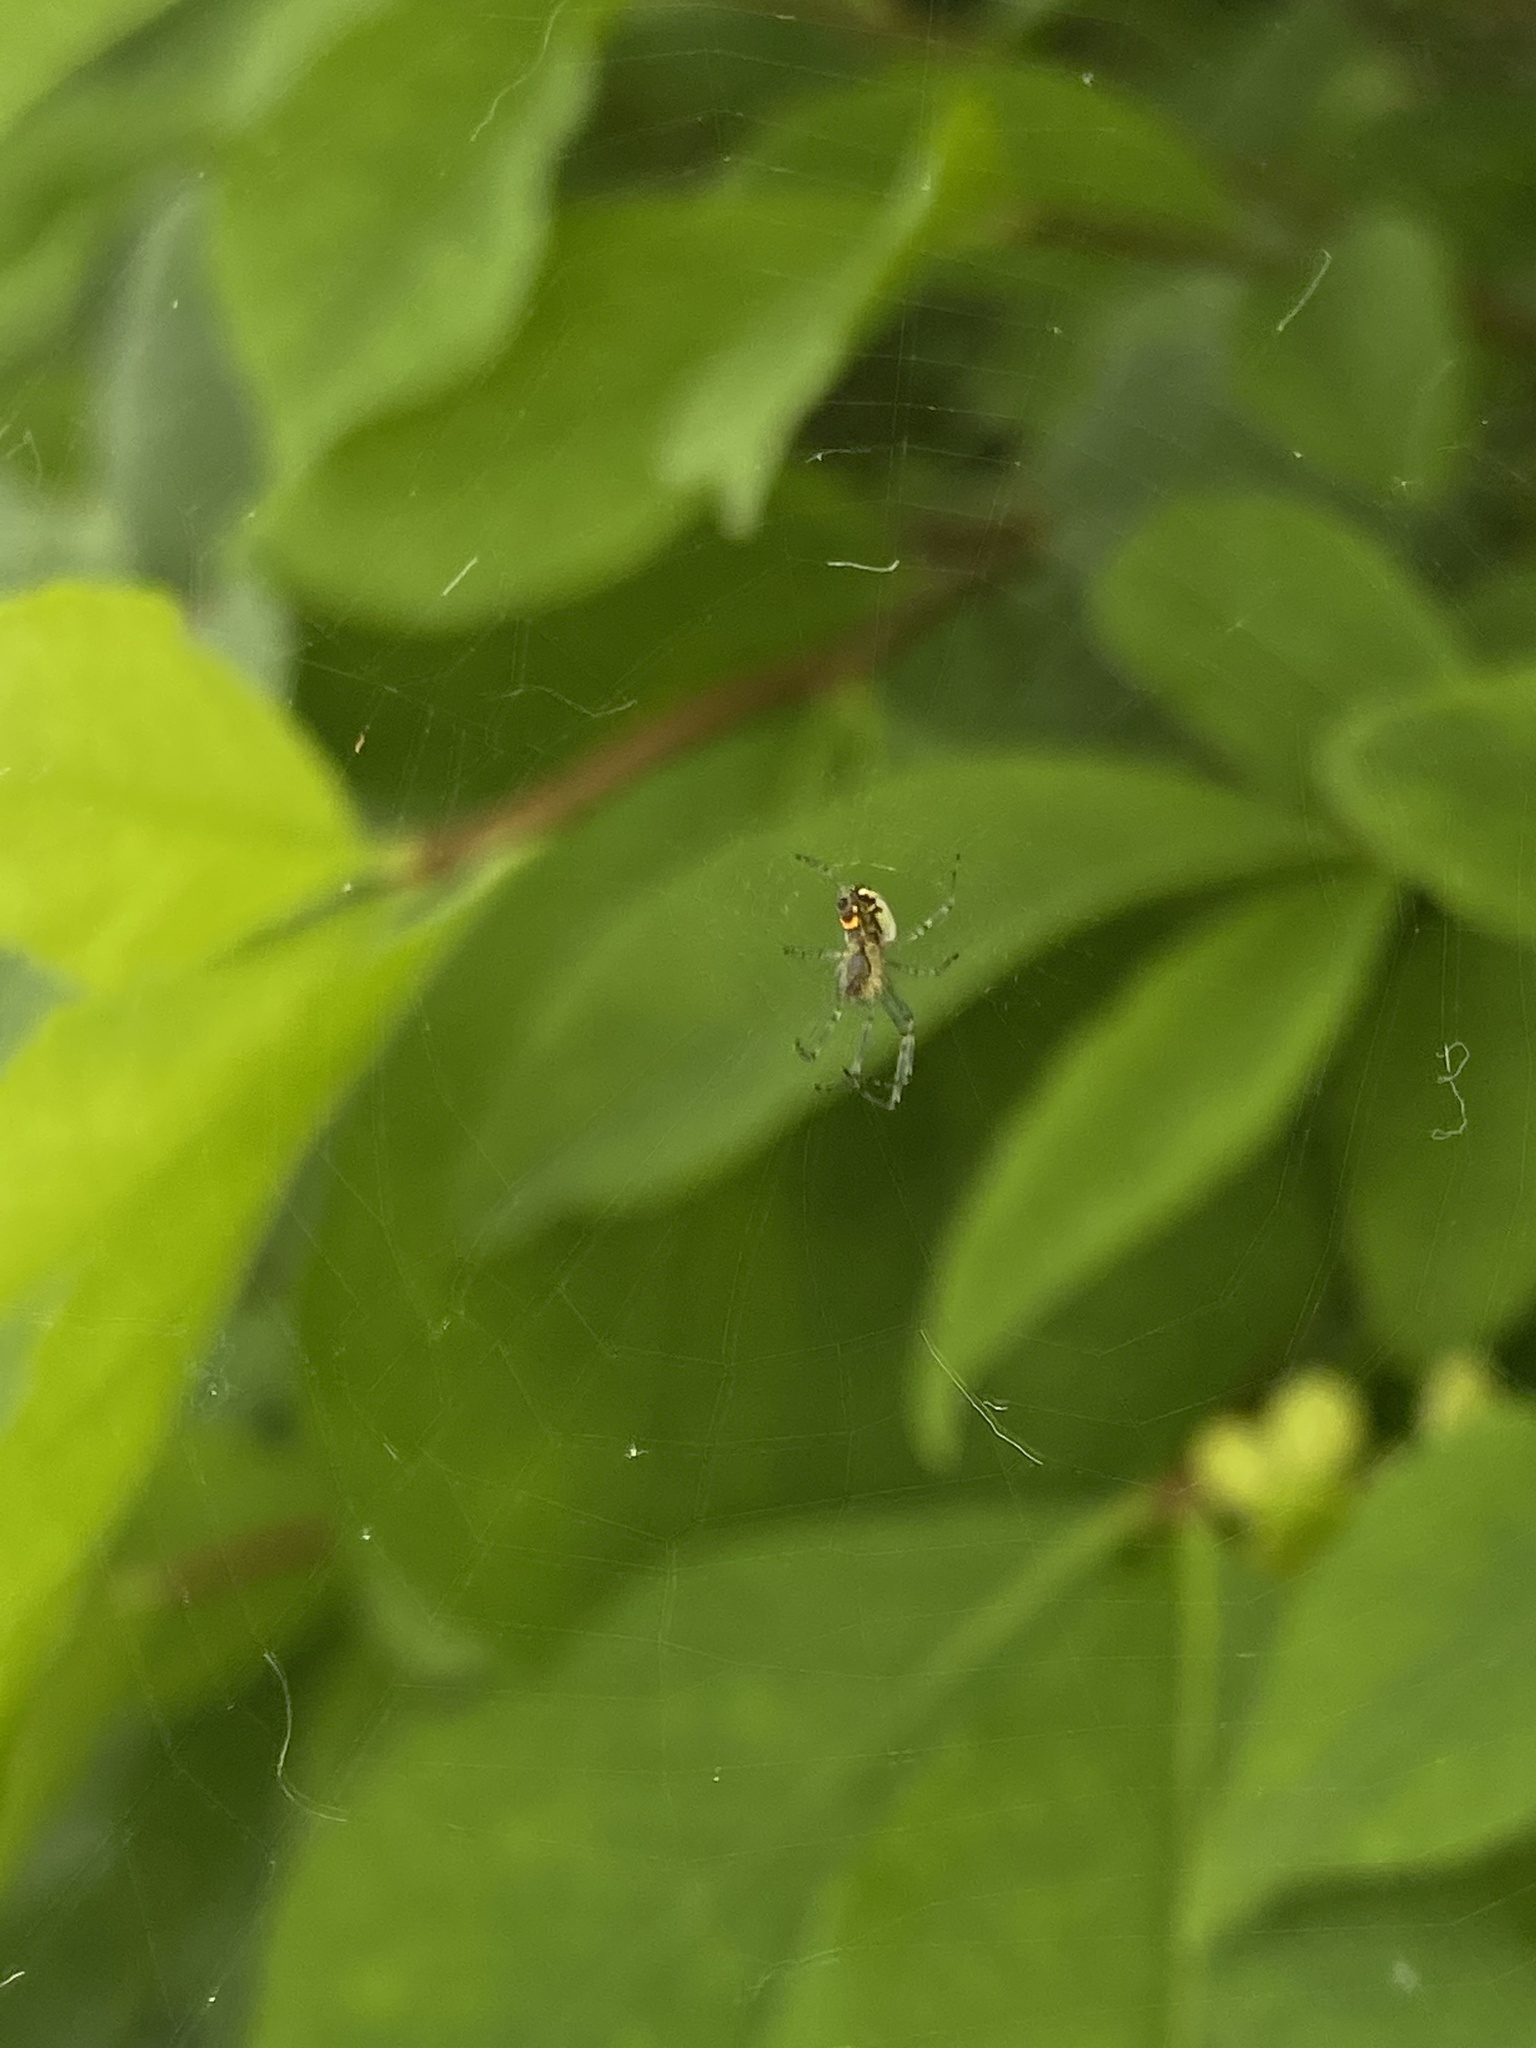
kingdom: Animalia
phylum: Arthropoda
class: Arachnida
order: Araneae
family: Tetragnathidae
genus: Leucauge
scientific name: Leucauge venusta
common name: Longjawed orb weavers
